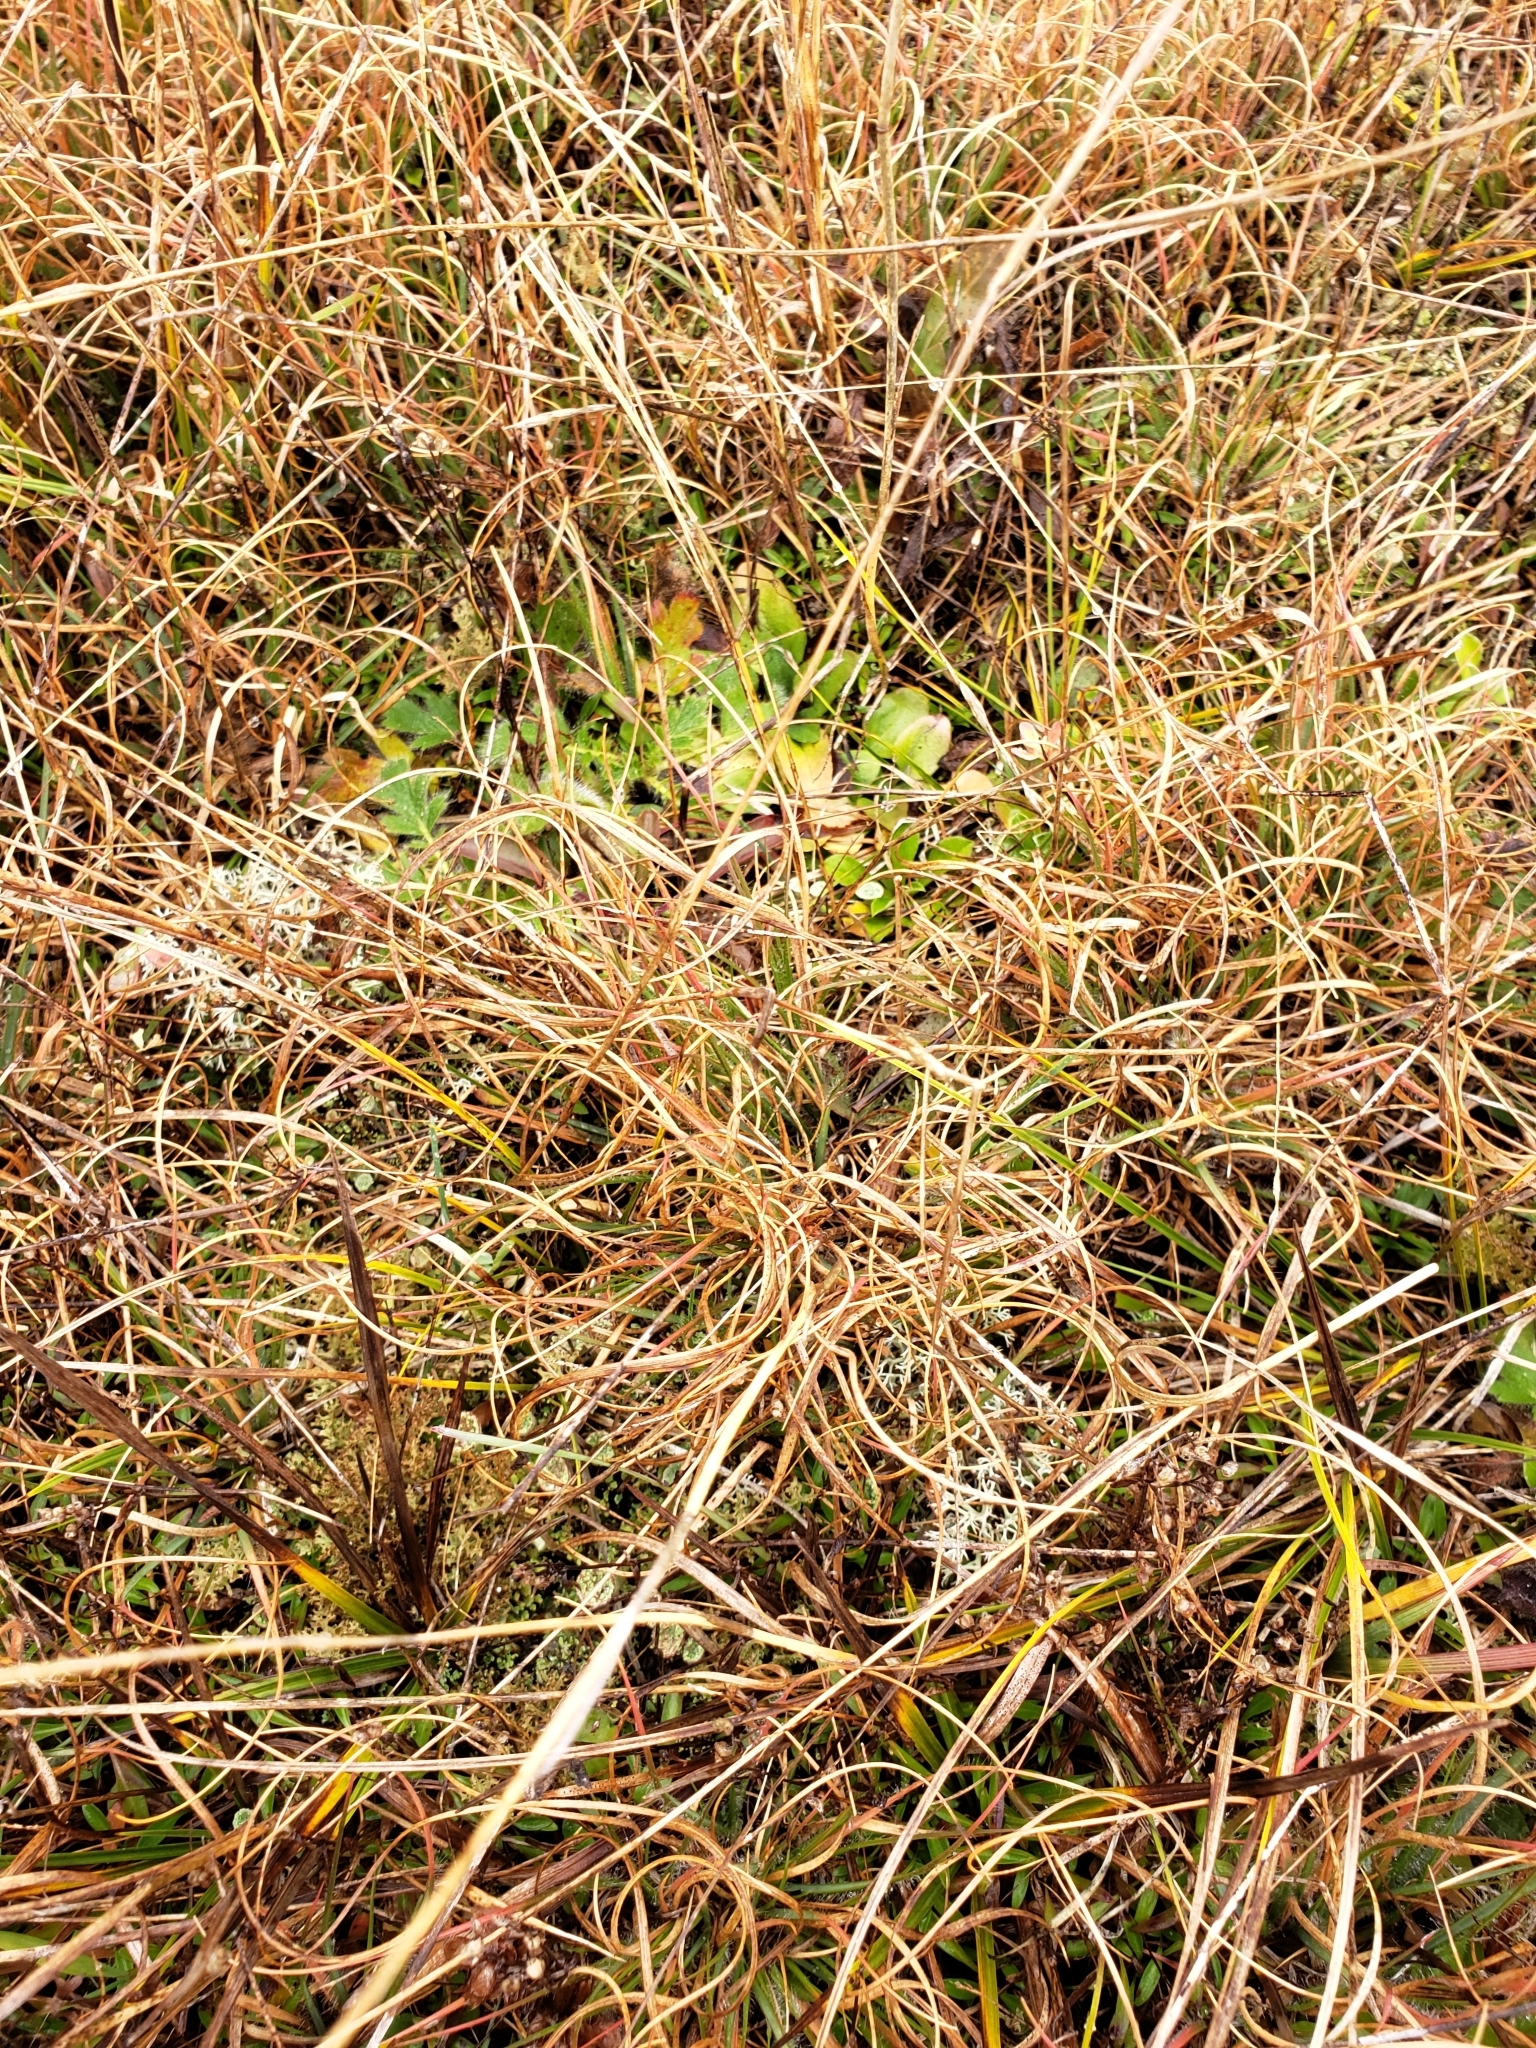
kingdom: Plantae
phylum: Tracheophyta
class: Liliopsida
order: Poales
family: Poaceae
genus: Danthonia
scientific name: Danthonia spicata
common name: Common wild oatgrass
